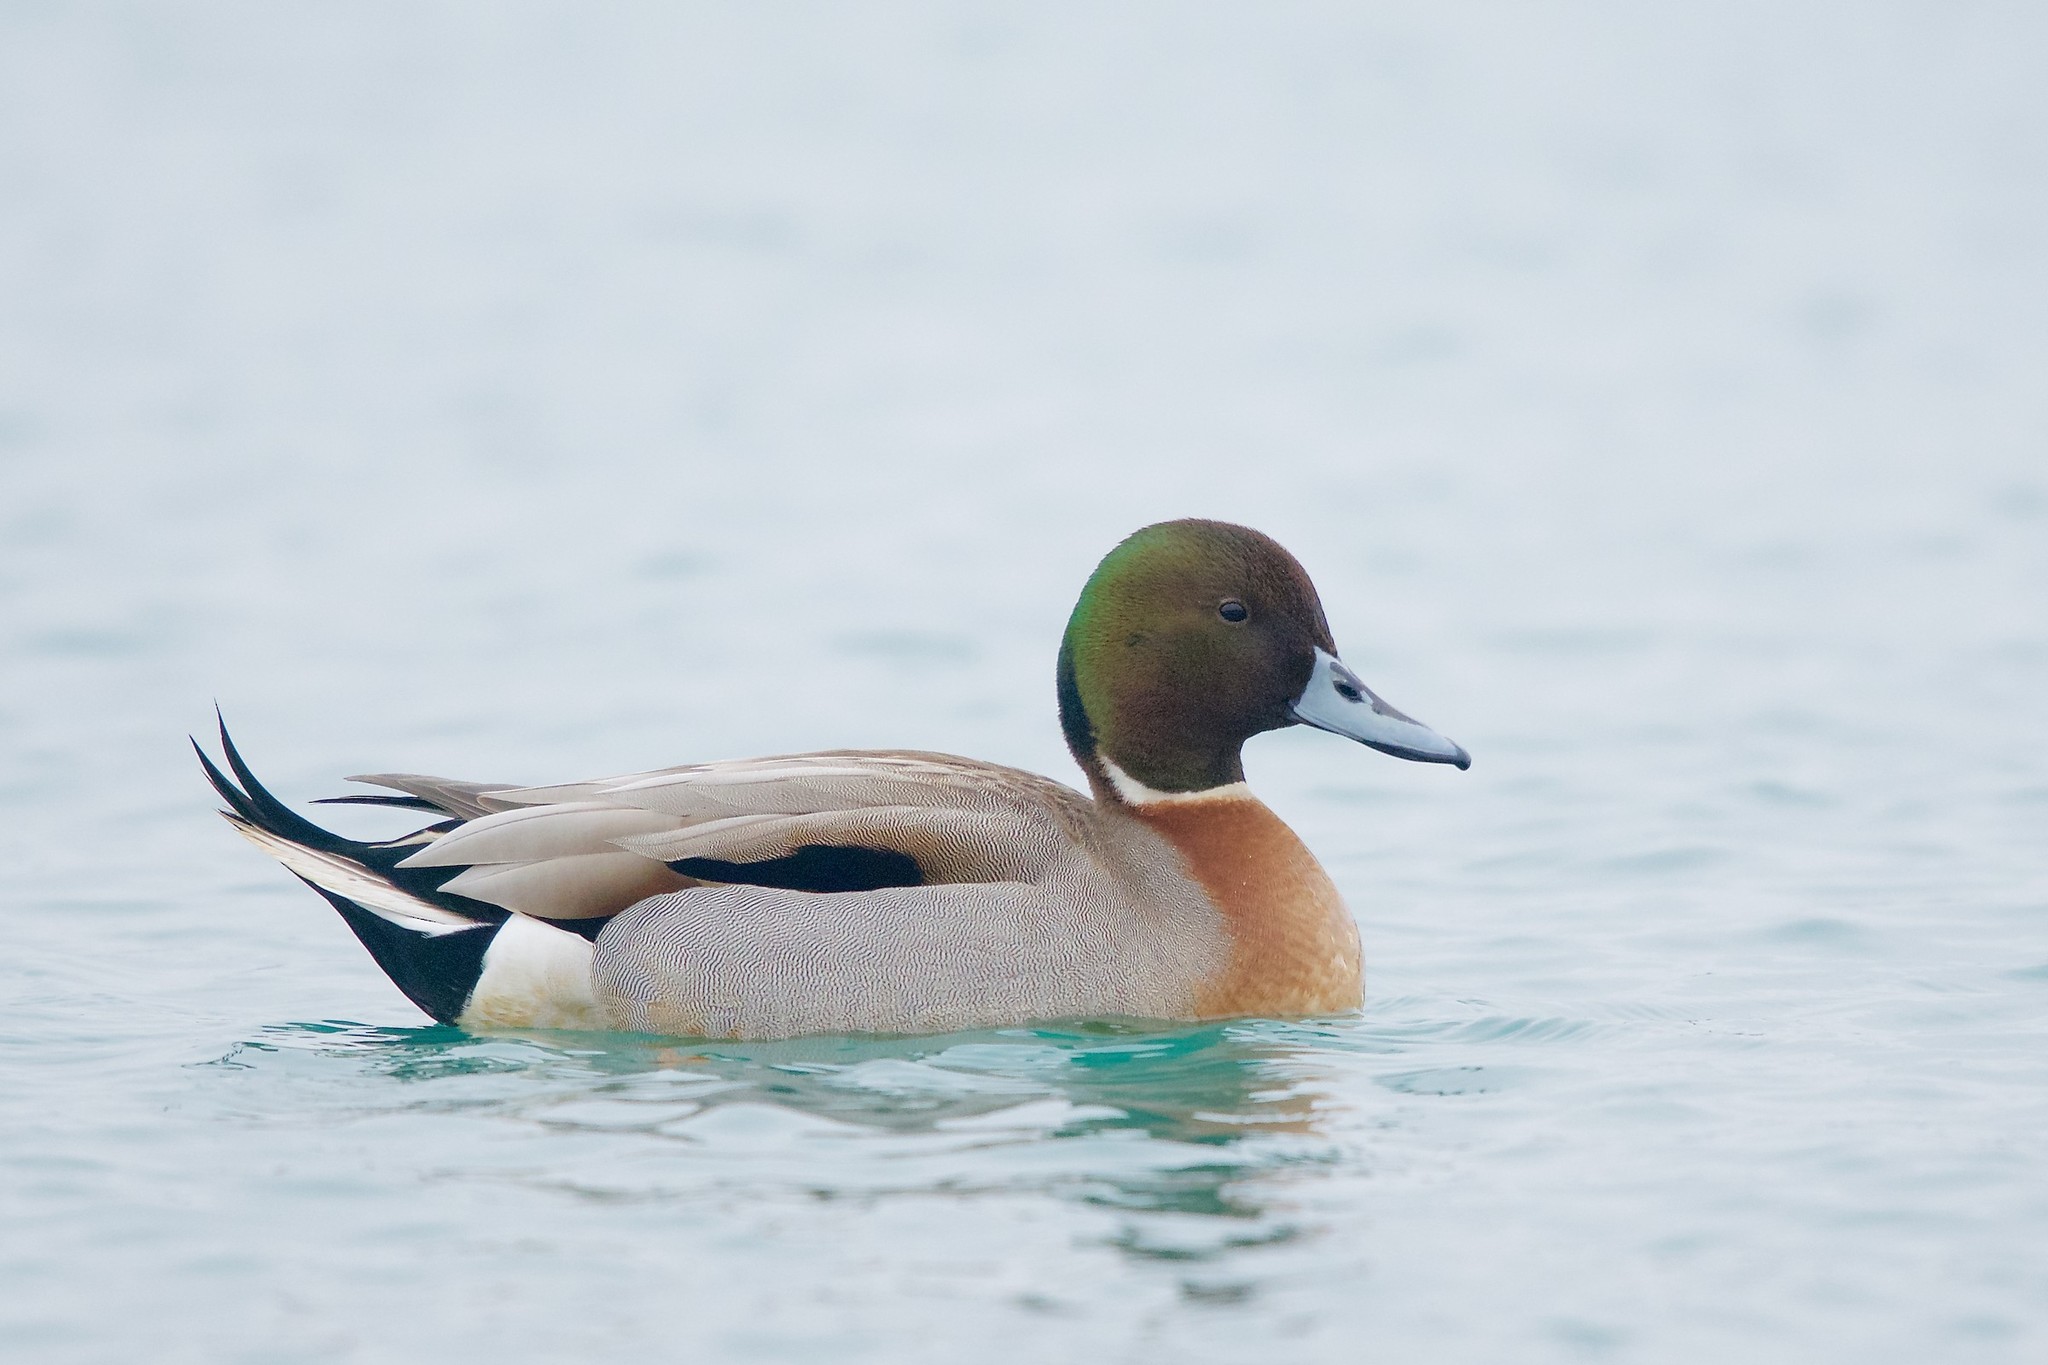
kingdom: Animalia
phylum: Chordata
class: Aves
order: Anseriformes
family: Anatidae
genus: Anas
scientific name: Anas
